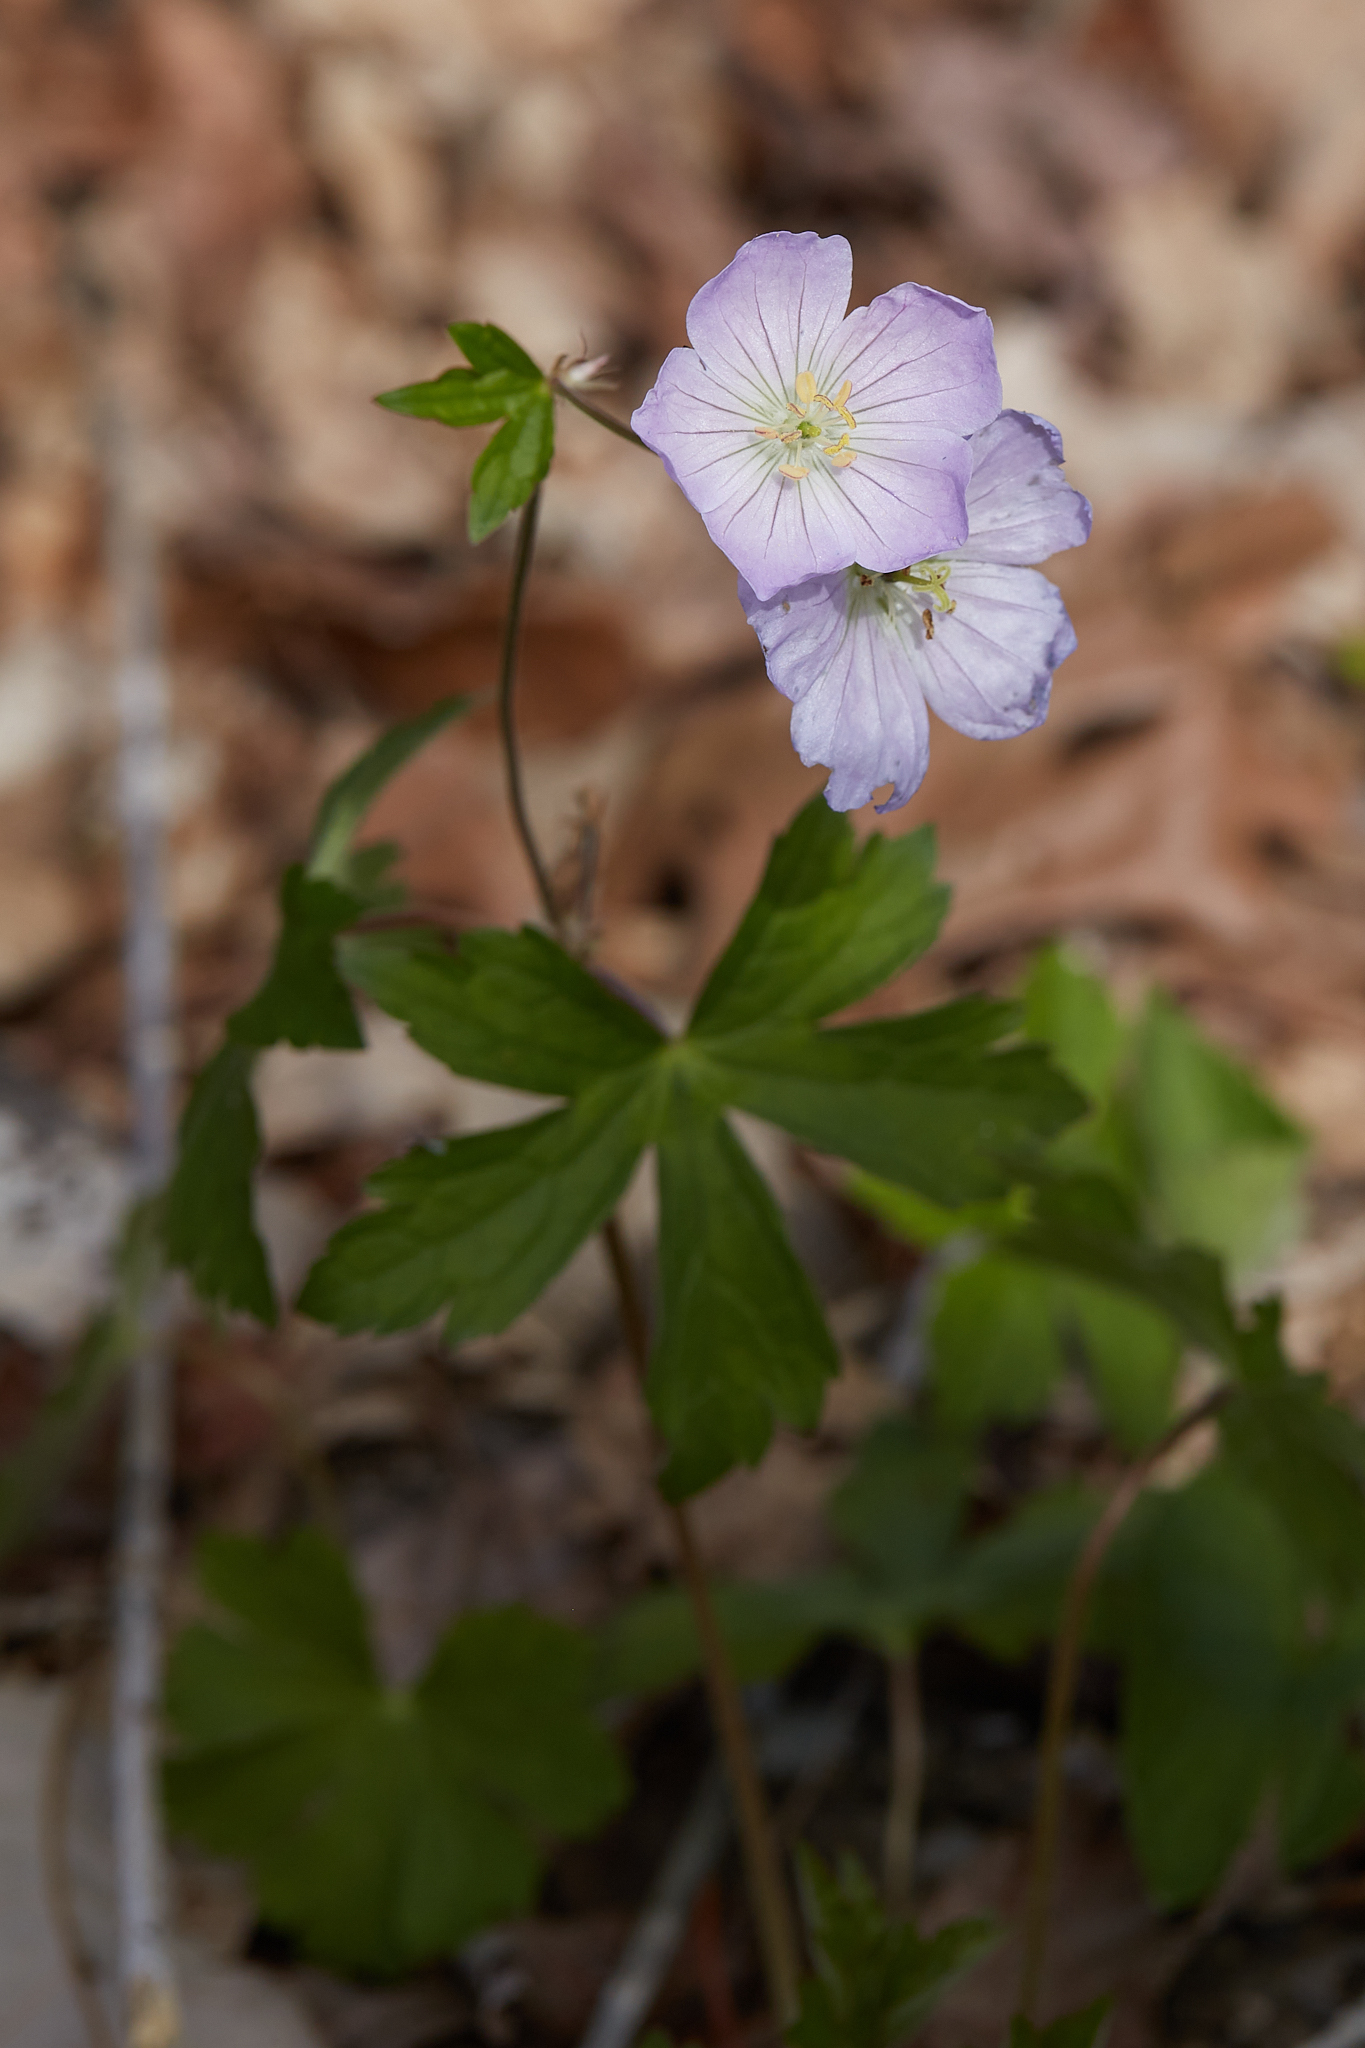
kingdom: Plantae
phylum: Tracheophyta
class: Magnoliopsida
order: Geraniales
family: Geraniaceae
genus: Geranium
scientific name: Geranium maculatum
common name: Spotted geranium
